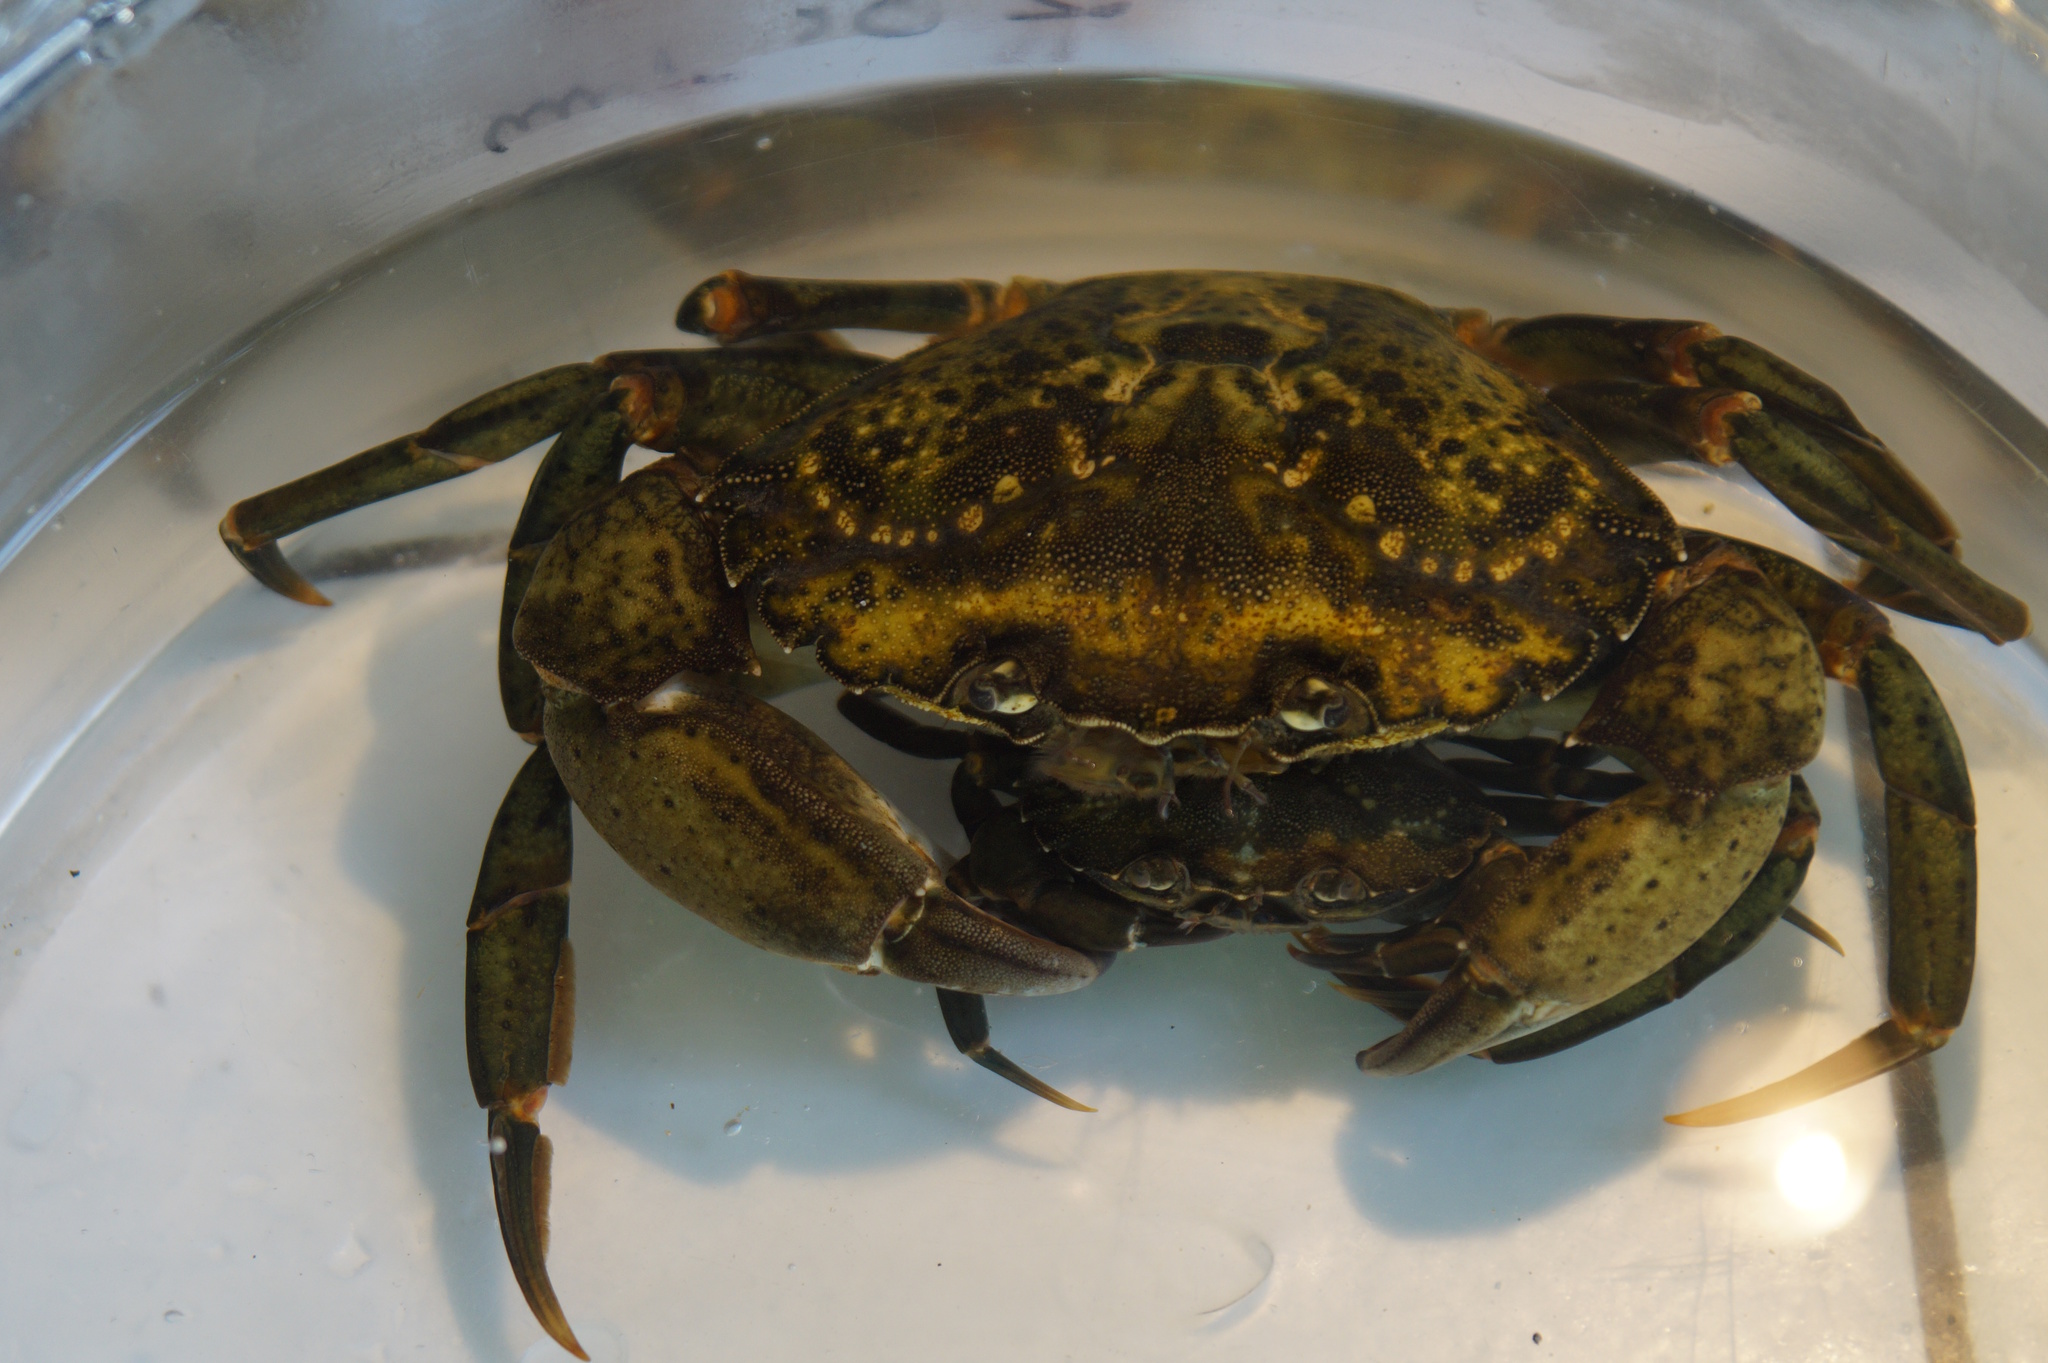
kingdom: Animalia
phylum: Arthropoda
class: Malacostraca
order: Decapoda
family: Carcinidae
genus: Carcinus
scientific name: Carcinus maenas
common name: European green crab
